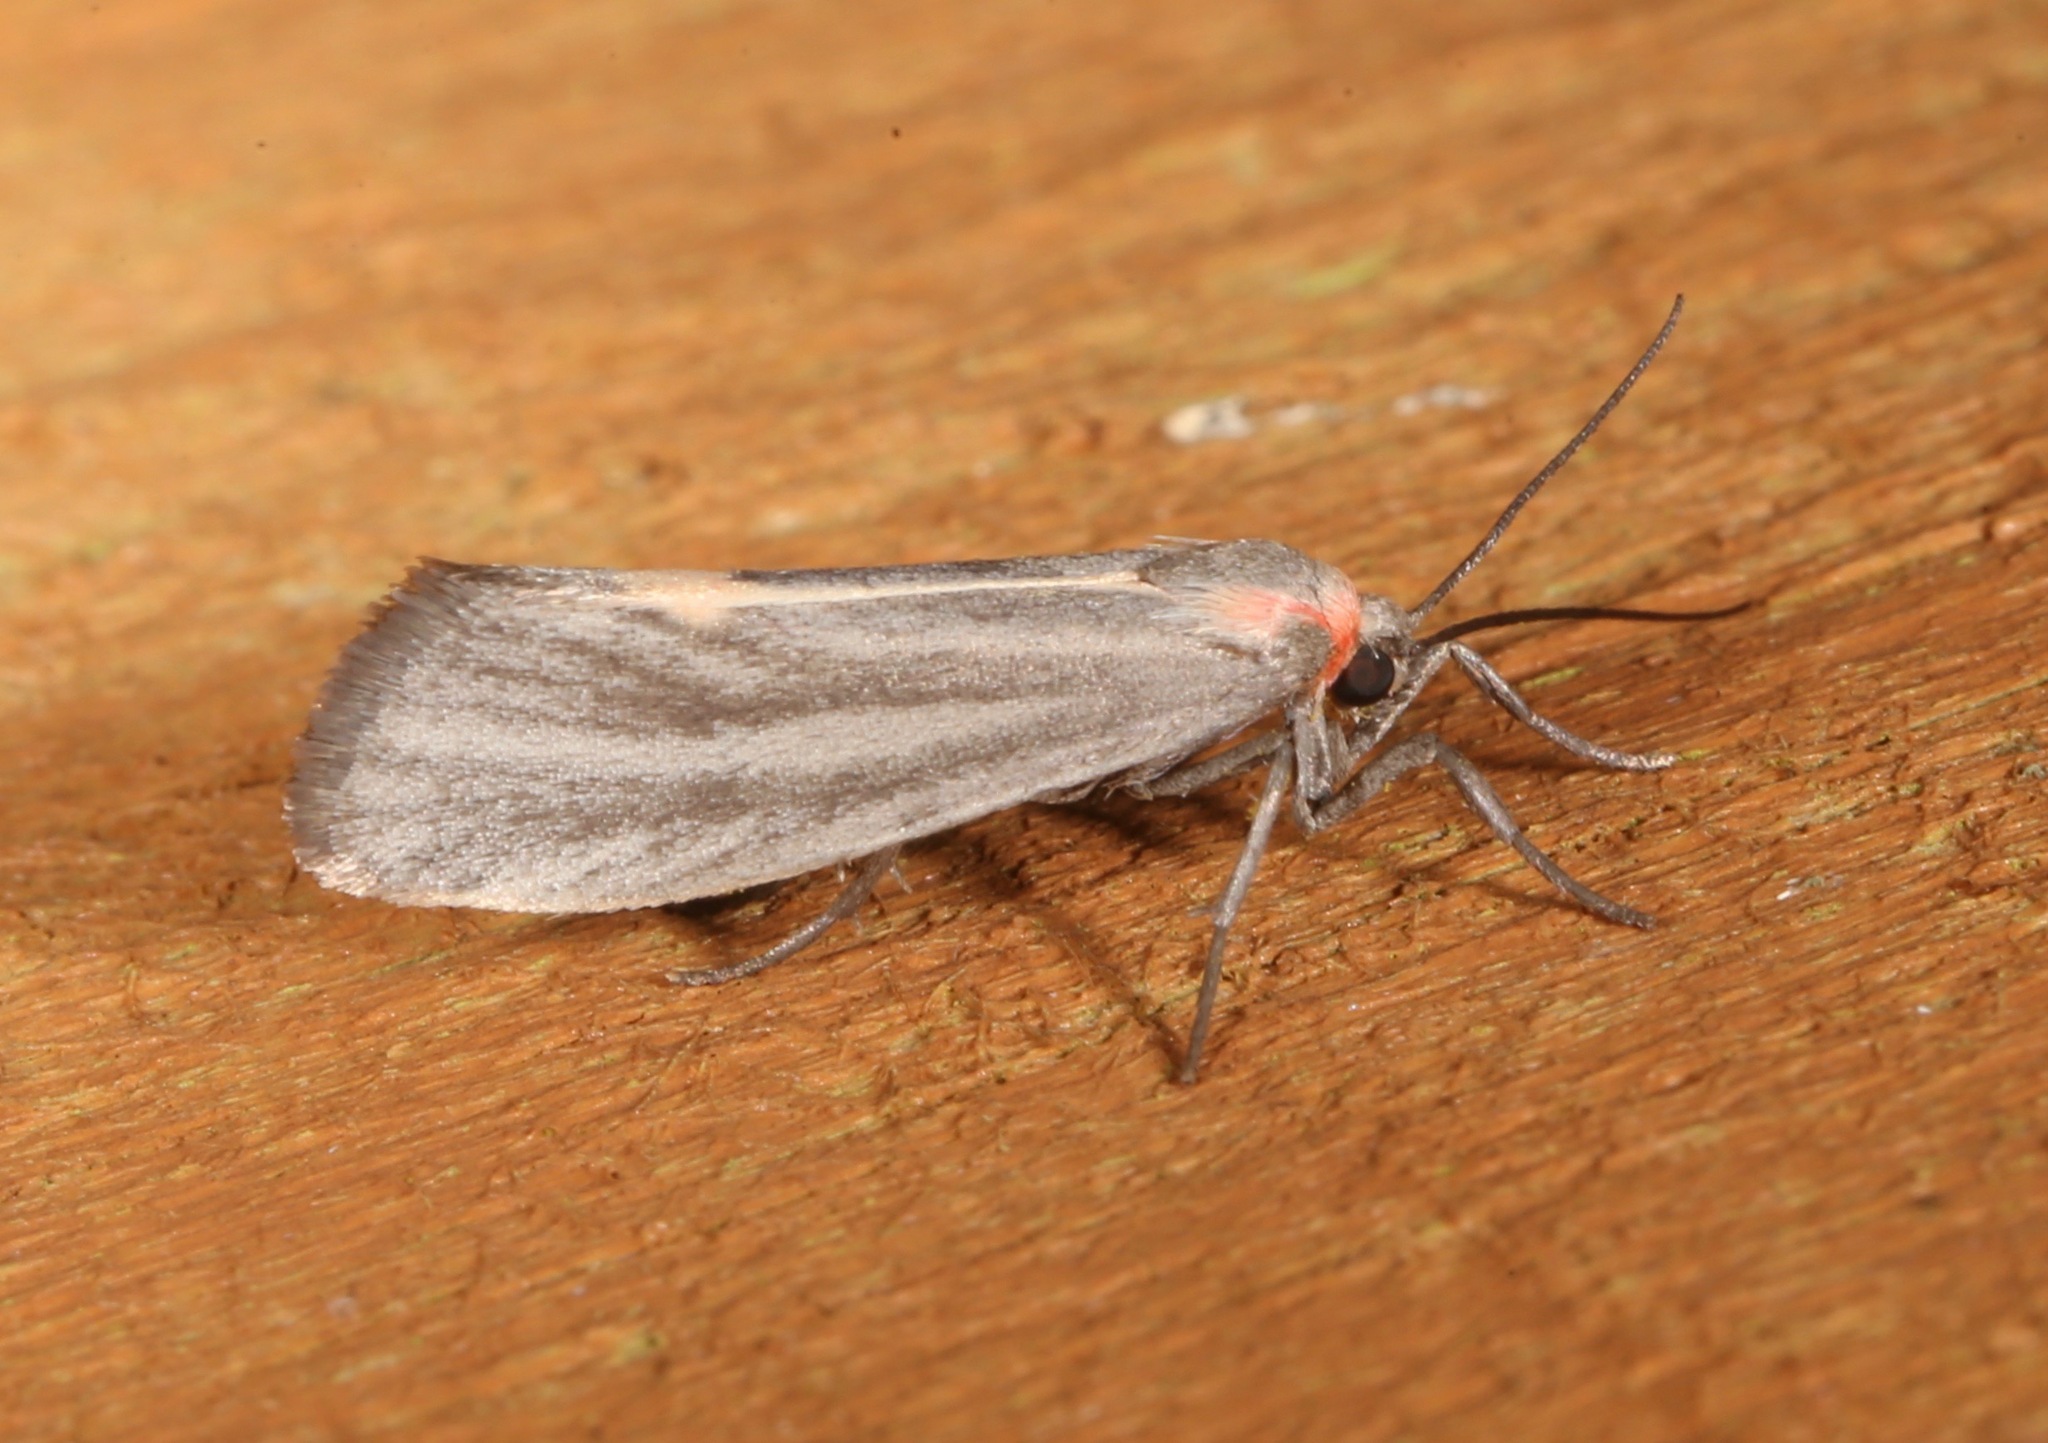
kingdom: Animalia
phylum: Arthropoda
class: Insecta
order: Lepidoptera
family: Erebidae
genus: Cisthene
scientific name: Cisthene striata
